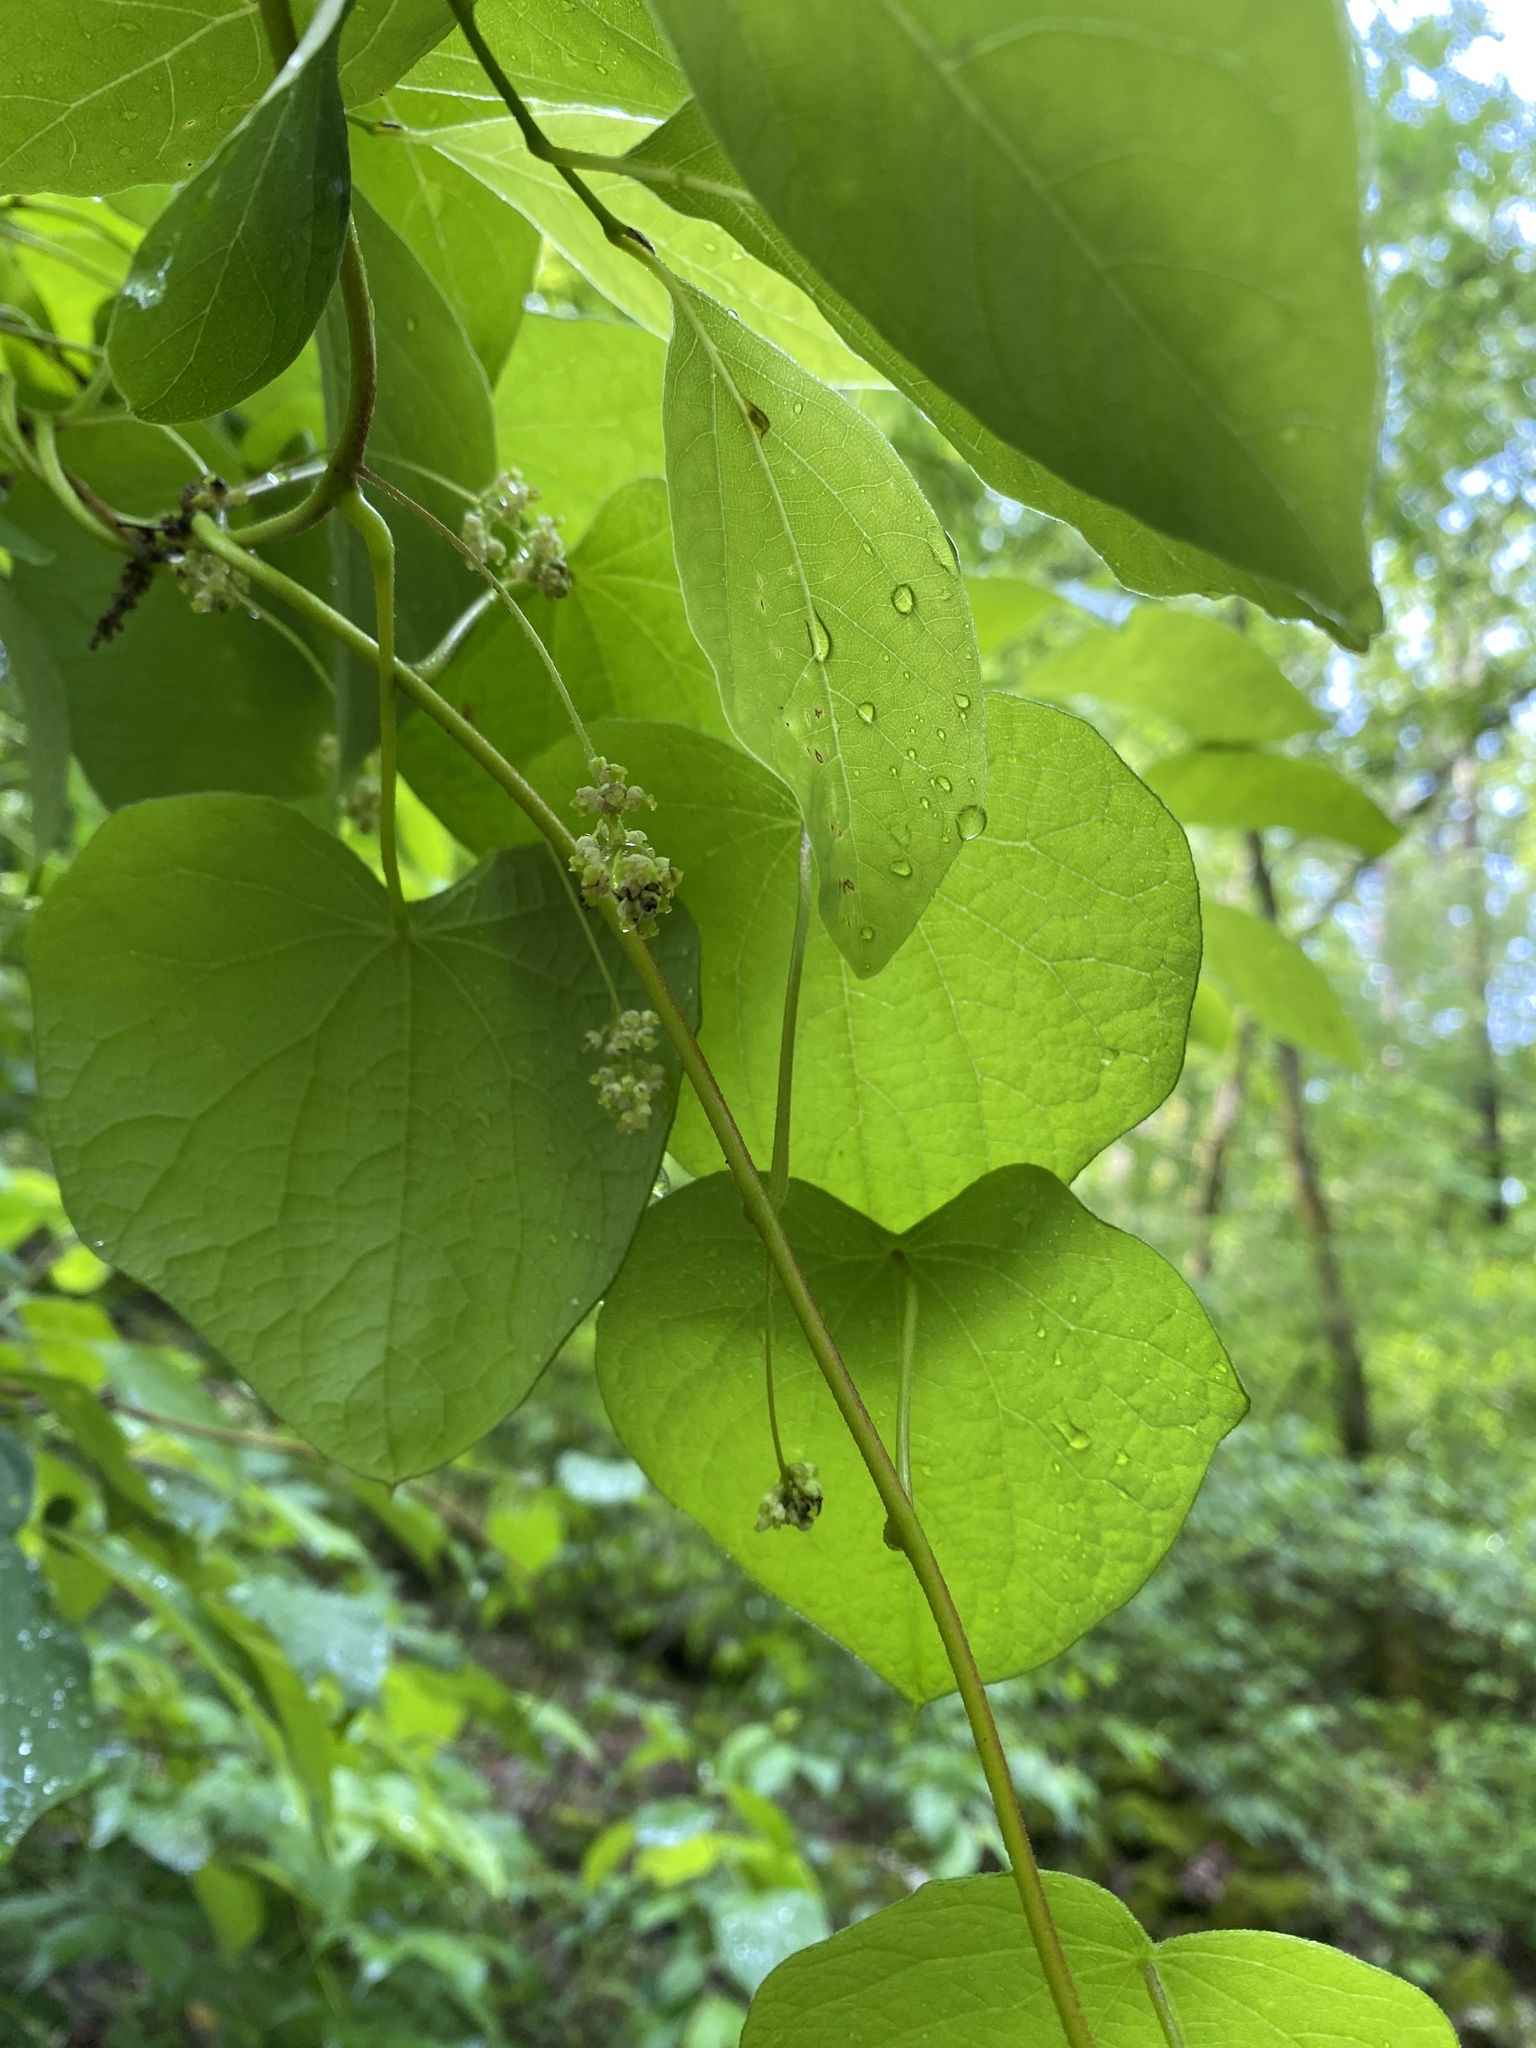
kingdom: Plantae
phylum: Tracheophyta
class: Magnoliopsida
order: Ranunculales
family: Menispermaceae
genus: Menispermum
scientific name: Menispermum canadense
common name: Moonseed
